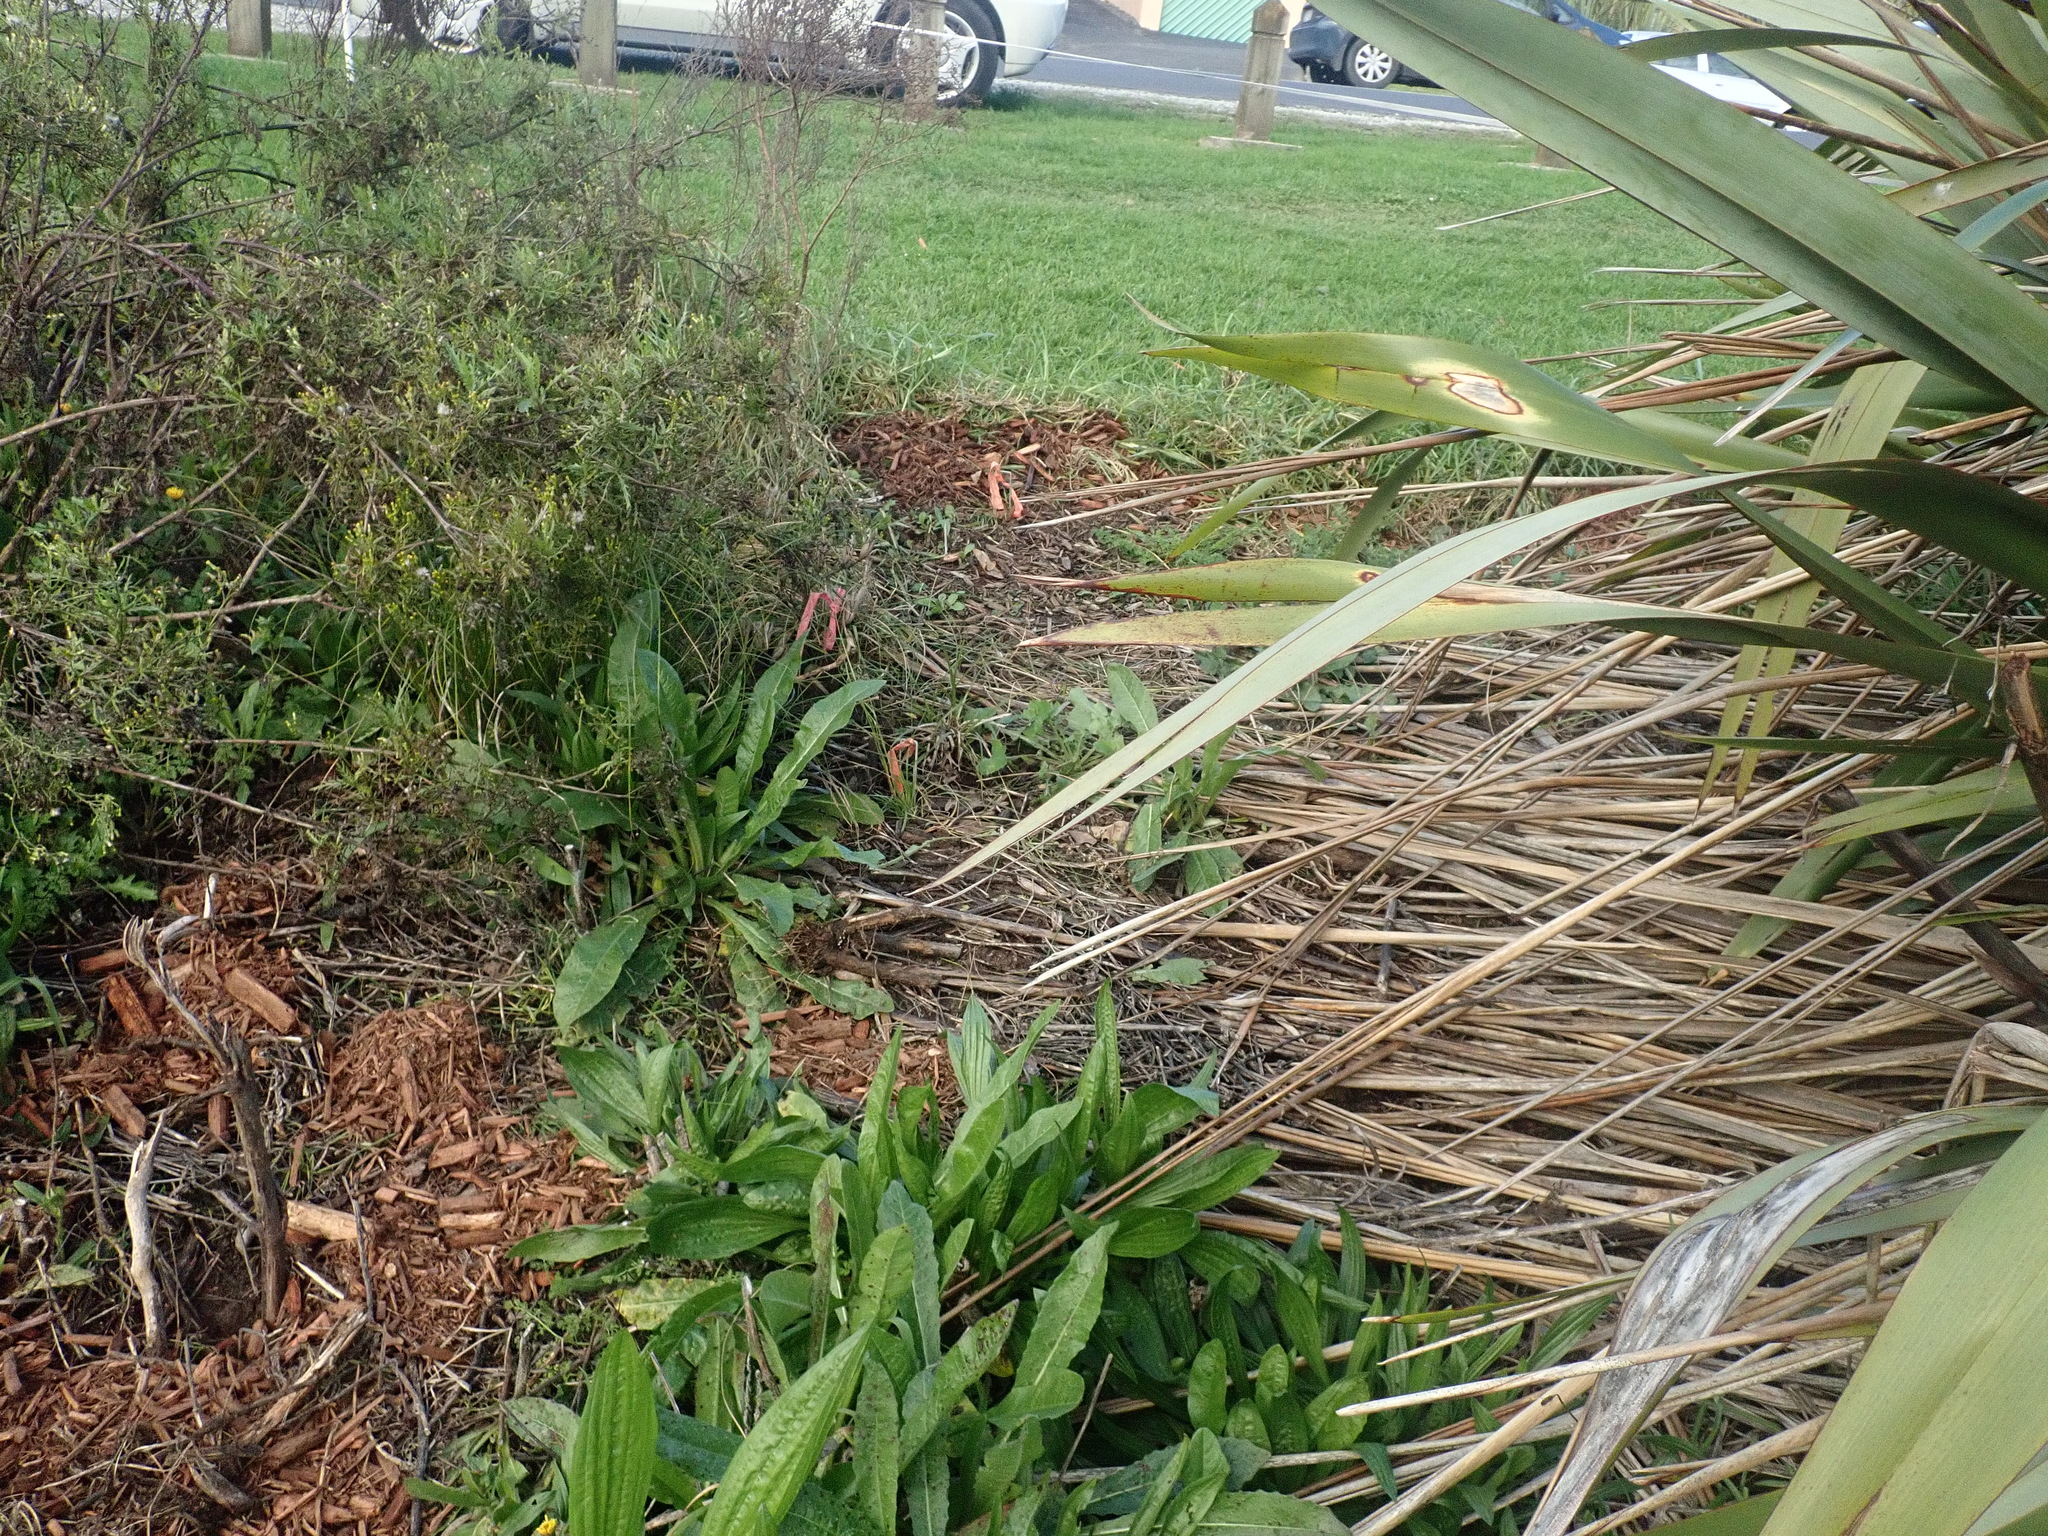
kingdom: Plantae
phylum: Tracheophyta
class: Magnoliopsida
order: Asterales
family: Asteraceae
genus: Helminthotheca
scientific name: Helminthotheca echioides
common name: Ox-tongue
